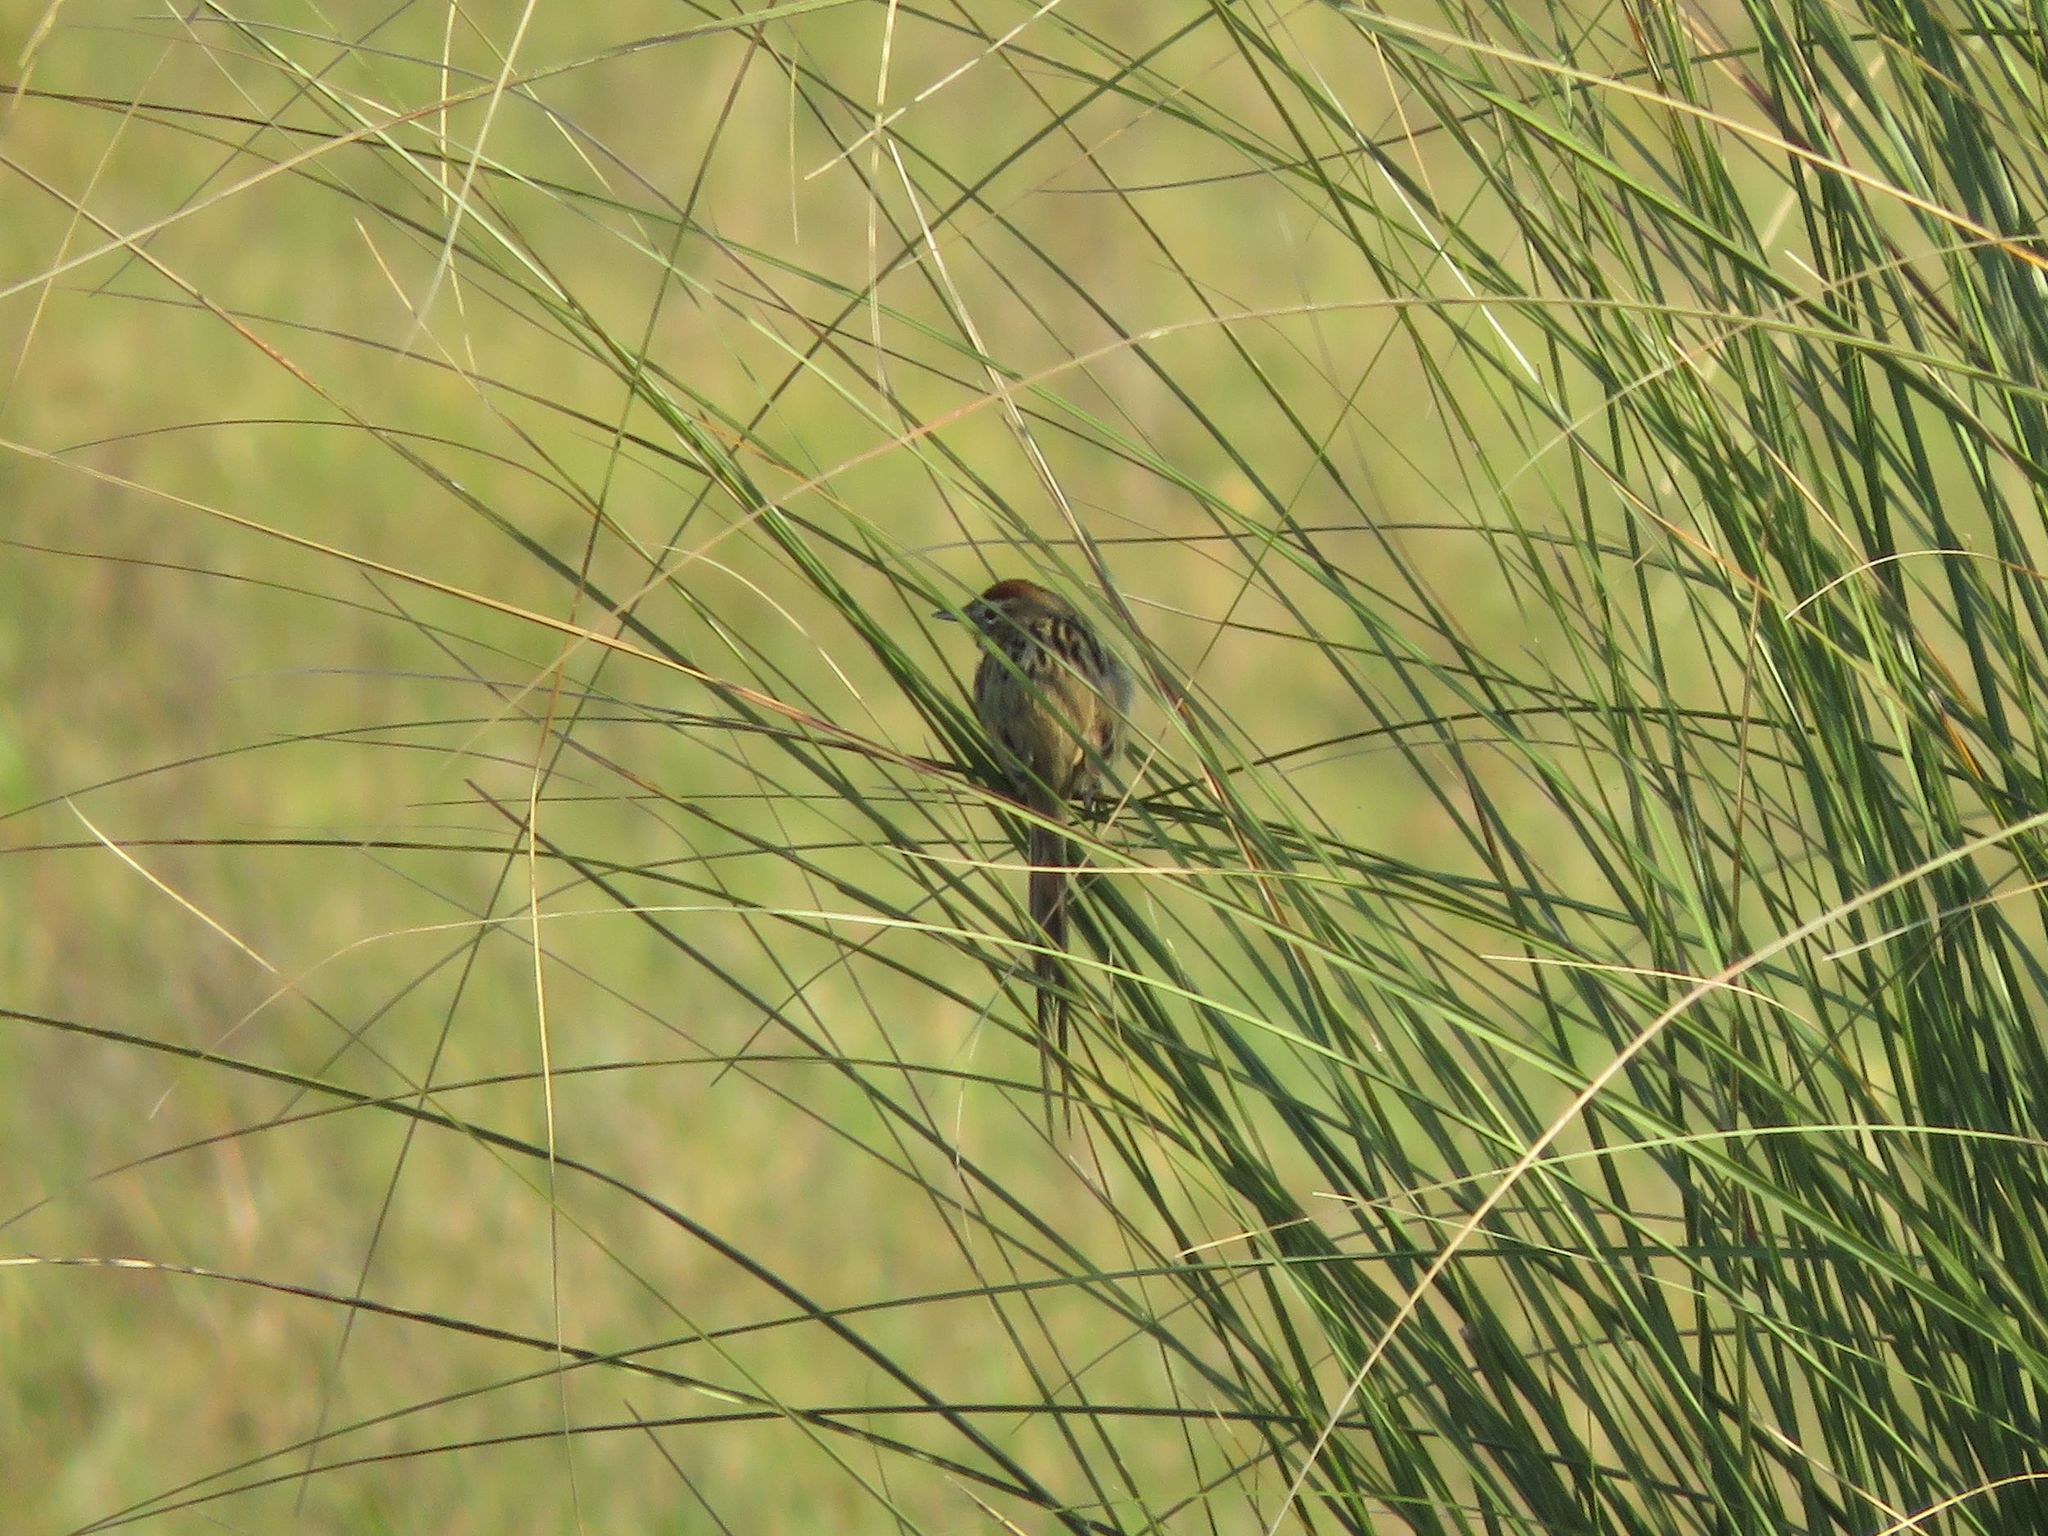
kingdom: Animalia
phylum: Chordata
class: Aves
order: Passeriformes
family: Furnariidae
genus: Schoeniophylax
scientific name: Schoeniophylax phryganophilus
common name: Chotoy spinetail
